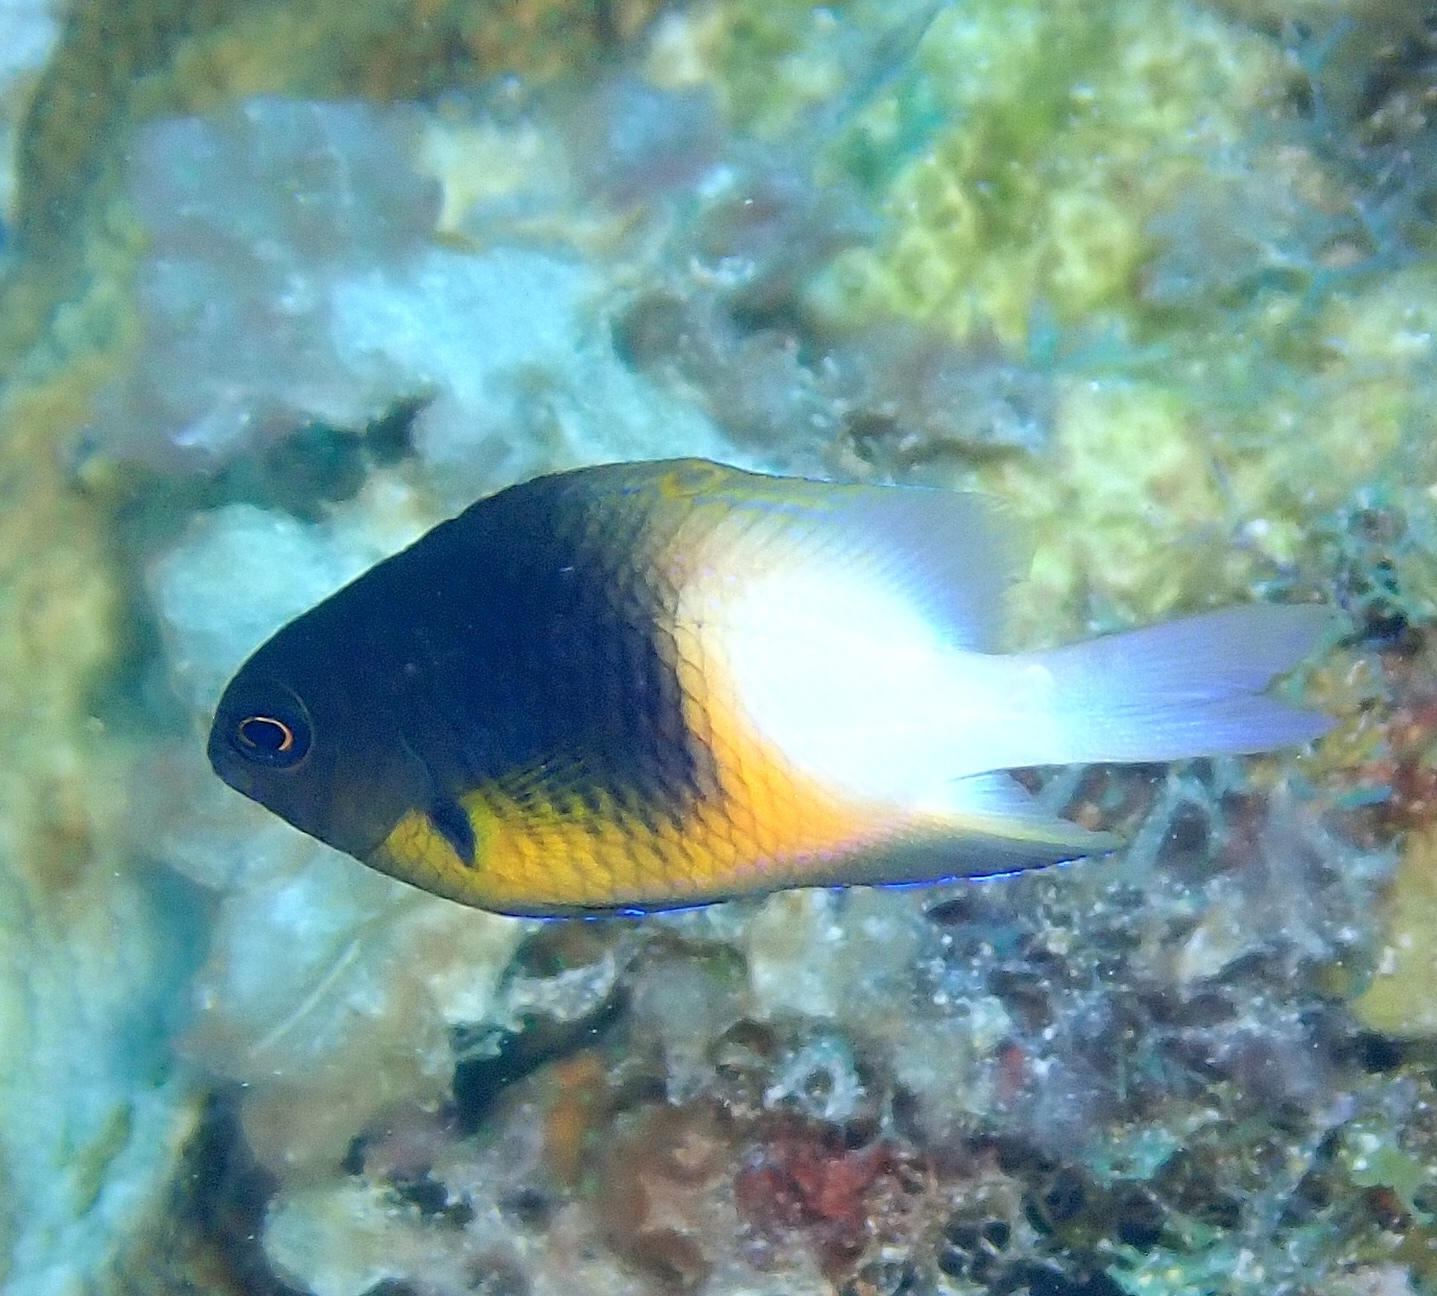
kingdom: Animalia
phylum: Chordata
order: Perciformes
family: Pomacentridae
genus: Stegastes
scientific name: Stegastes partitus
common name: Bicolor damselfish
